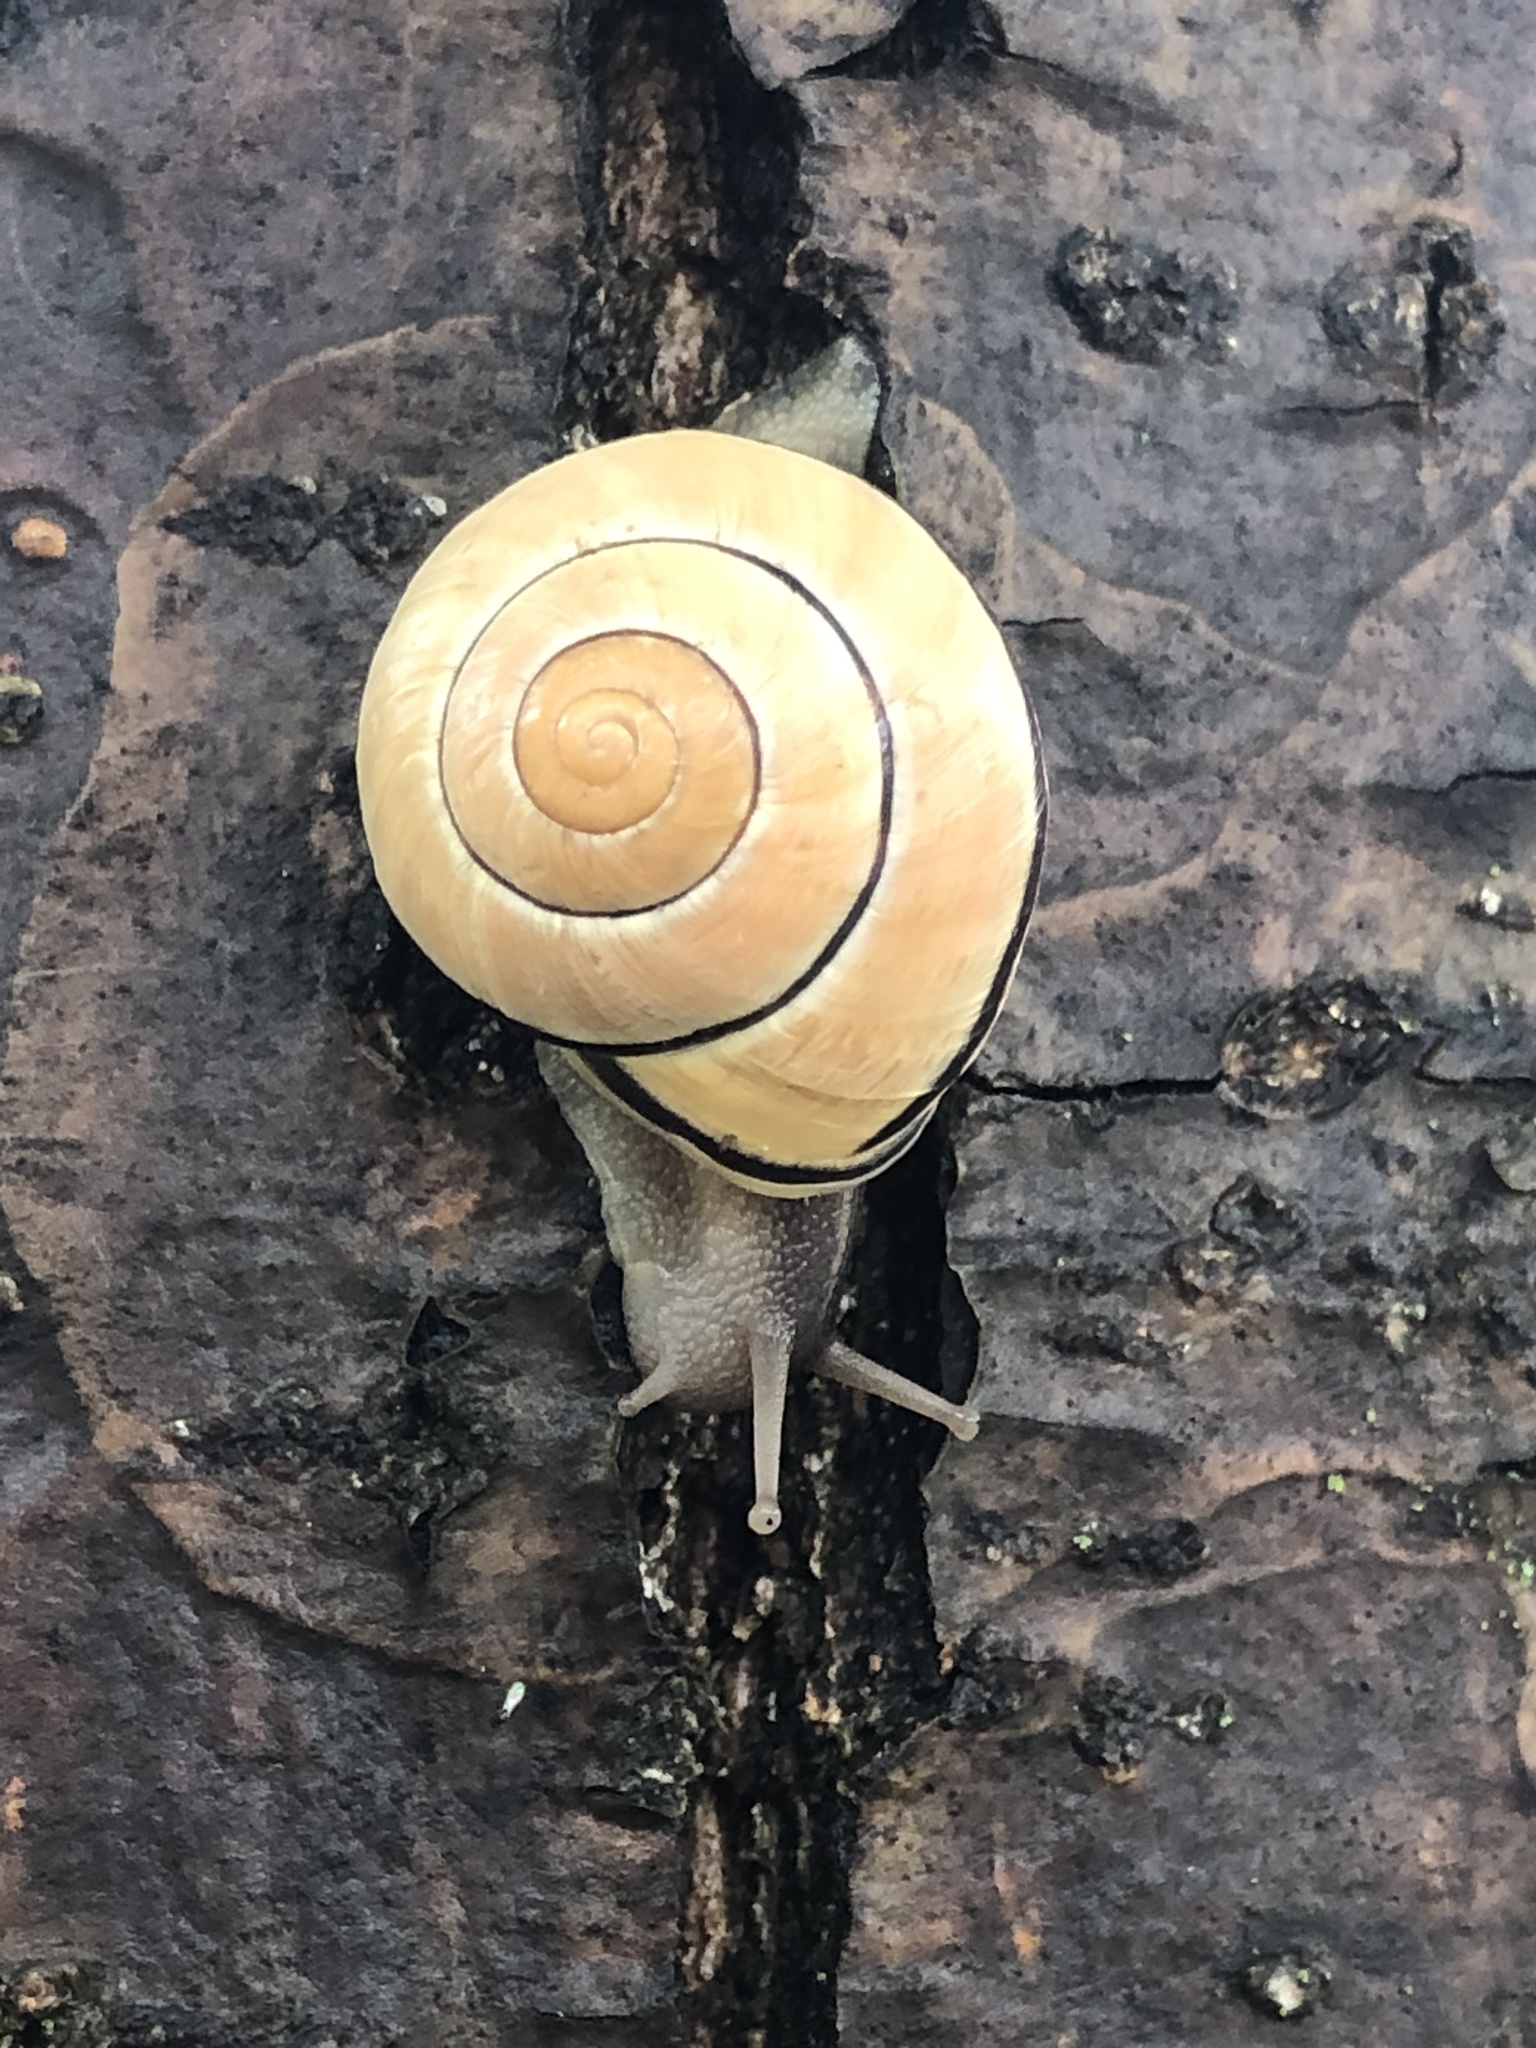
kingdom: Animalia
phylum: Mollusca
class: Gastropoda
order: Stylommatophora
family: Helicidae
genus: Cepaea
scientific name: Cepaea nemoralis
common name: Grovesnail
